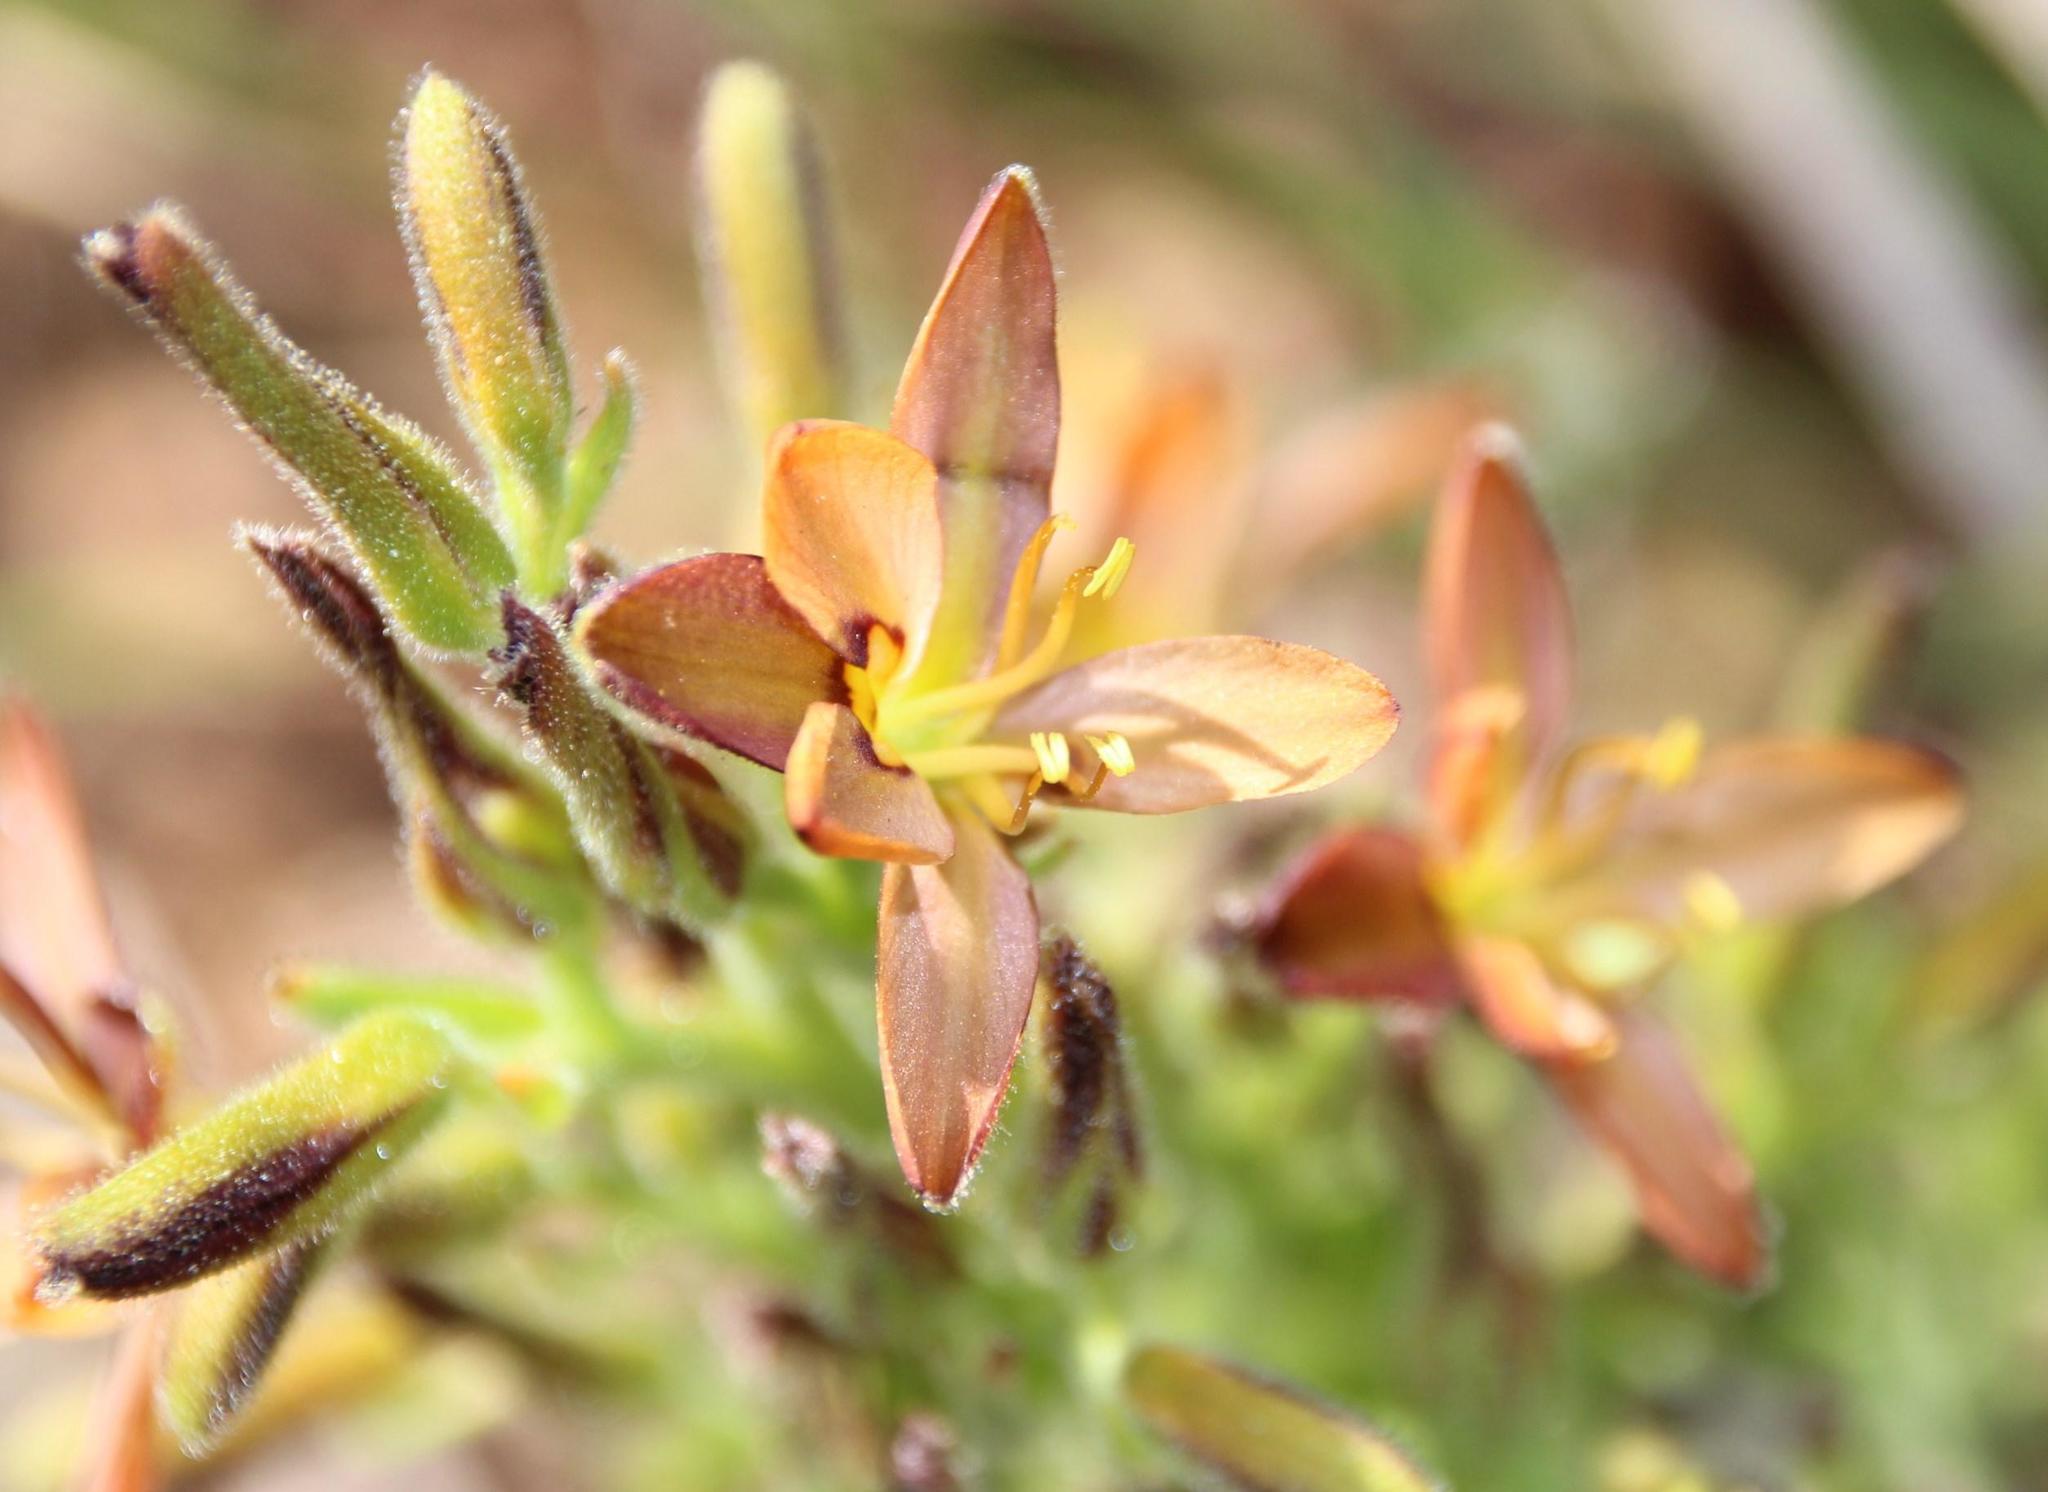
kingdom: Plantae
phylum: Tracheophyta
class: Liliopsida
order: Commelinales
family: Haemodoraceae
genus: Wachendorfia
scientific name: Wachendorfia multiflora
